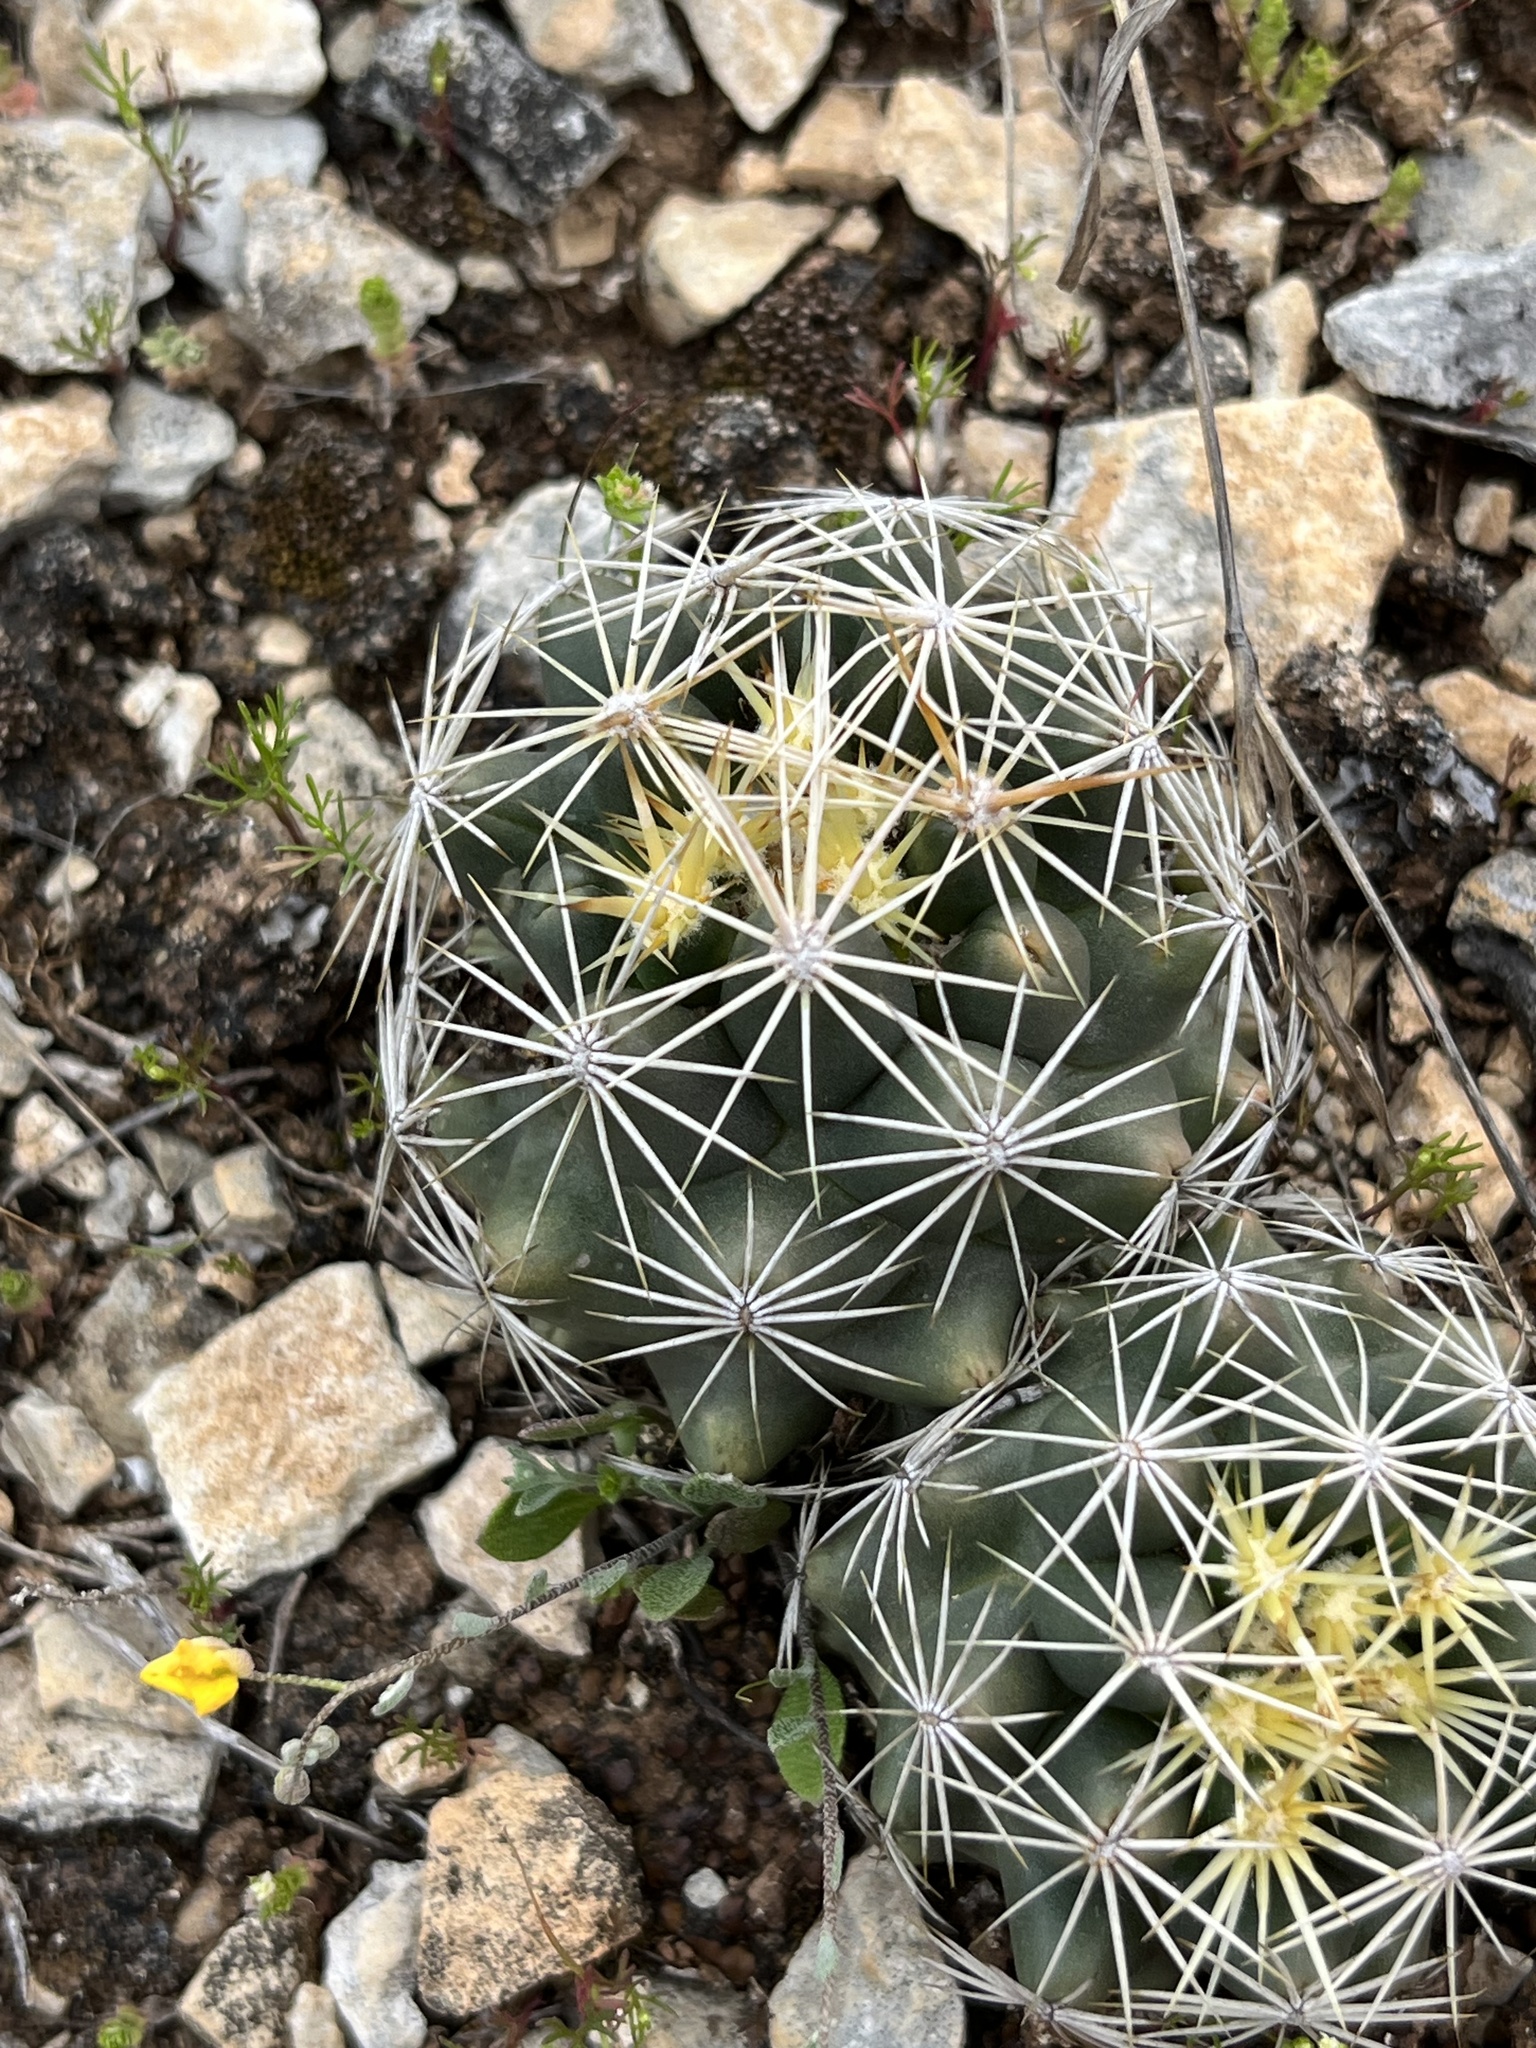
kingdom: Plantae
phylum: Tracheophyta
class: Magnoliopsida
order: Caryophyllales
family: Cactaceae
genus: Coryphantha
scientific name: Coryphantha sulcata
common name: Finger cactus
